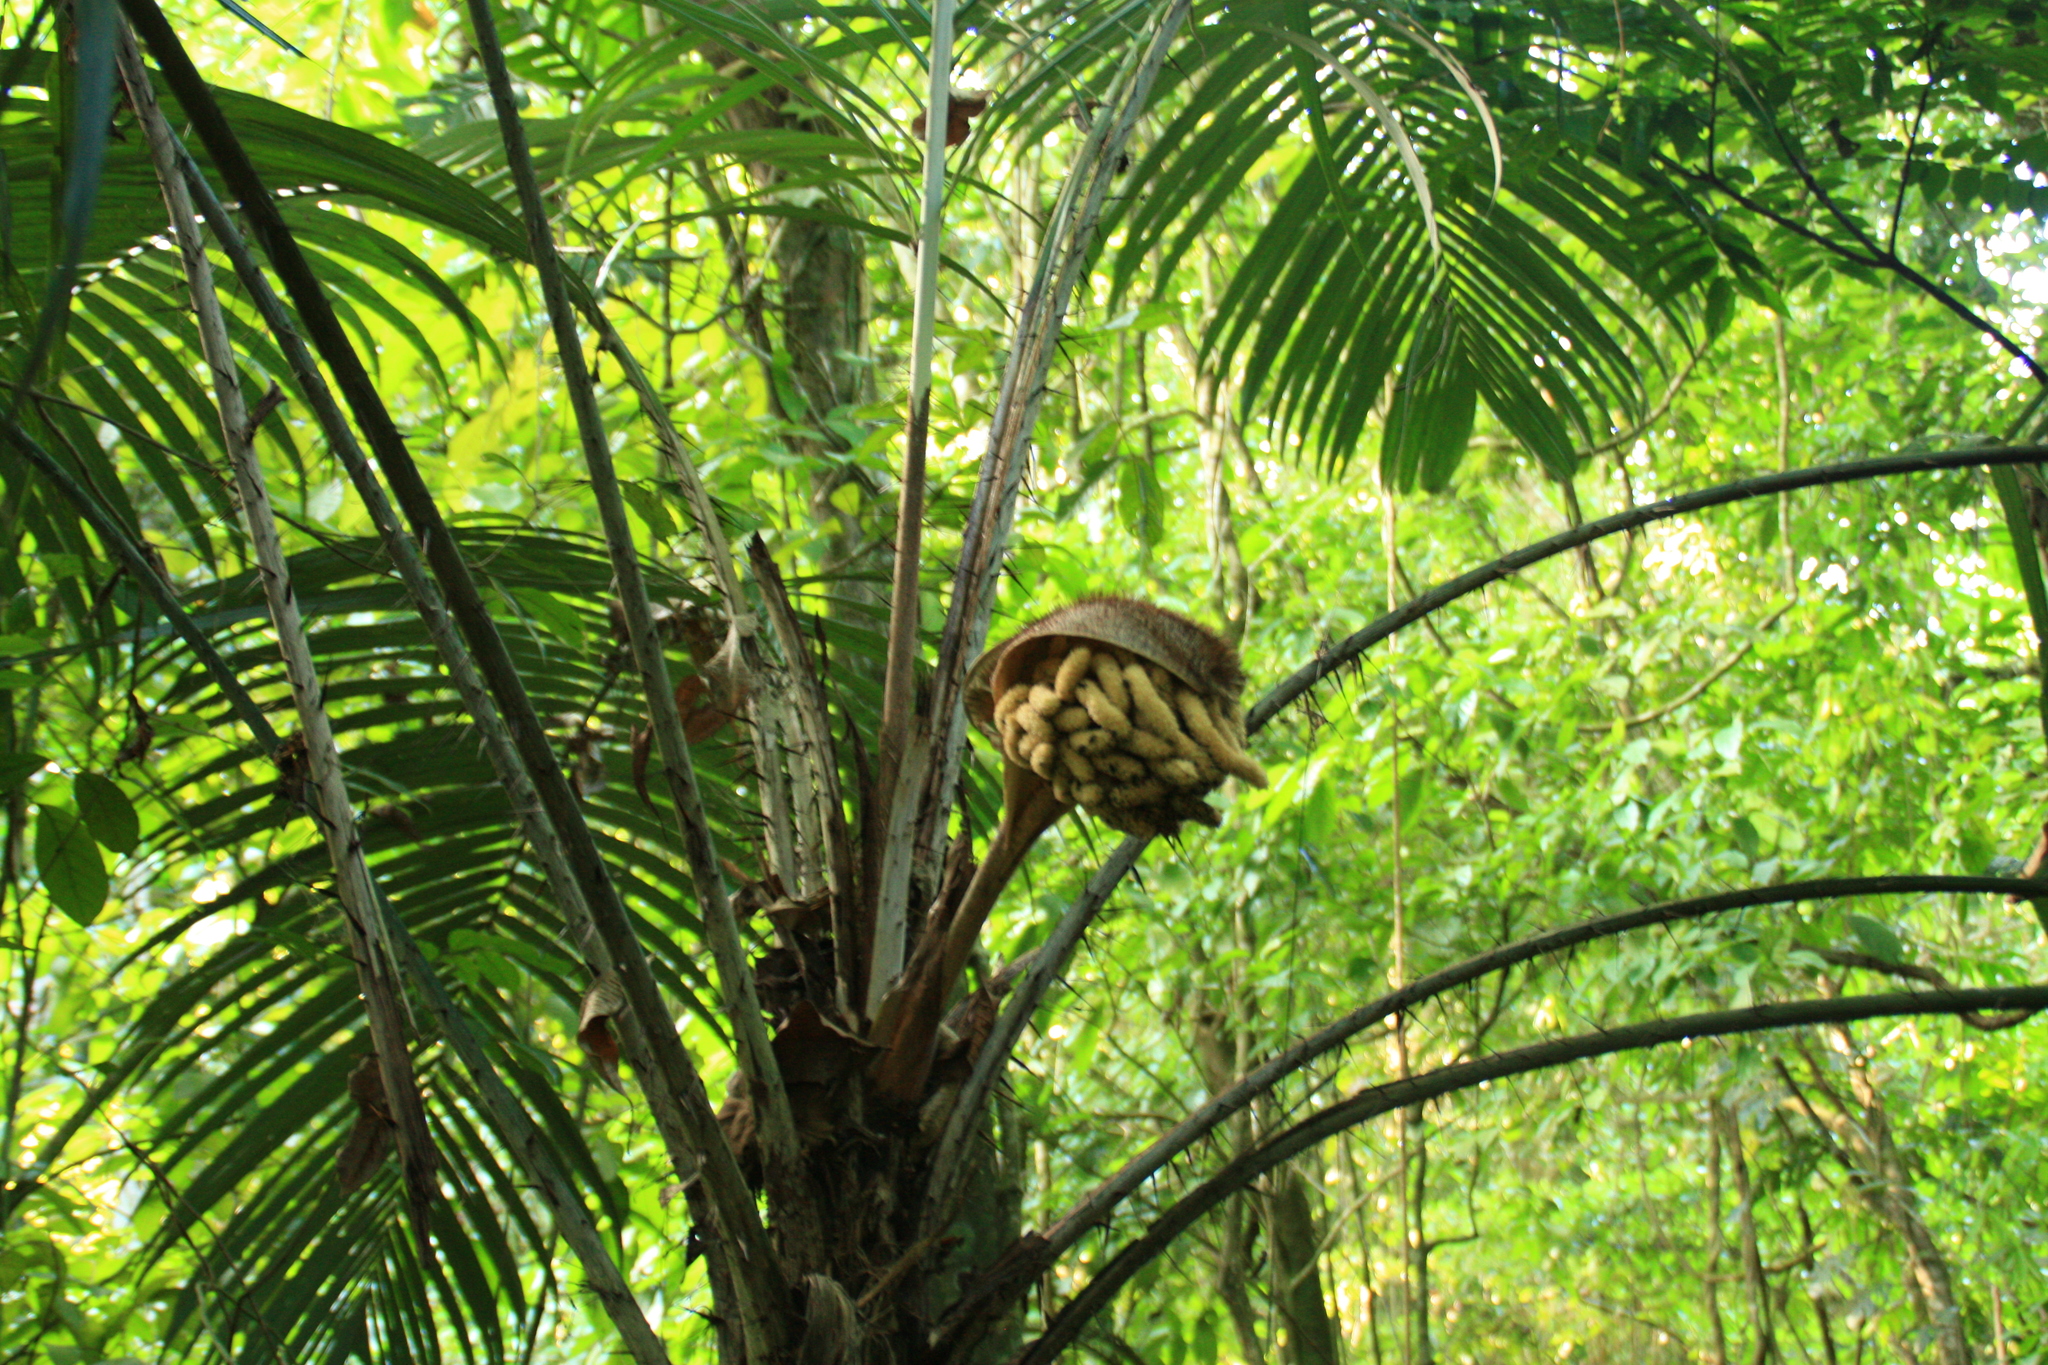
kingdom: Plantae
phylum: Tracheophyta
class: Liliopsida
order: Arecales
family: Arecaceae
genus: Astrocaryum
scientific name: Astrocaryum mexicanum
